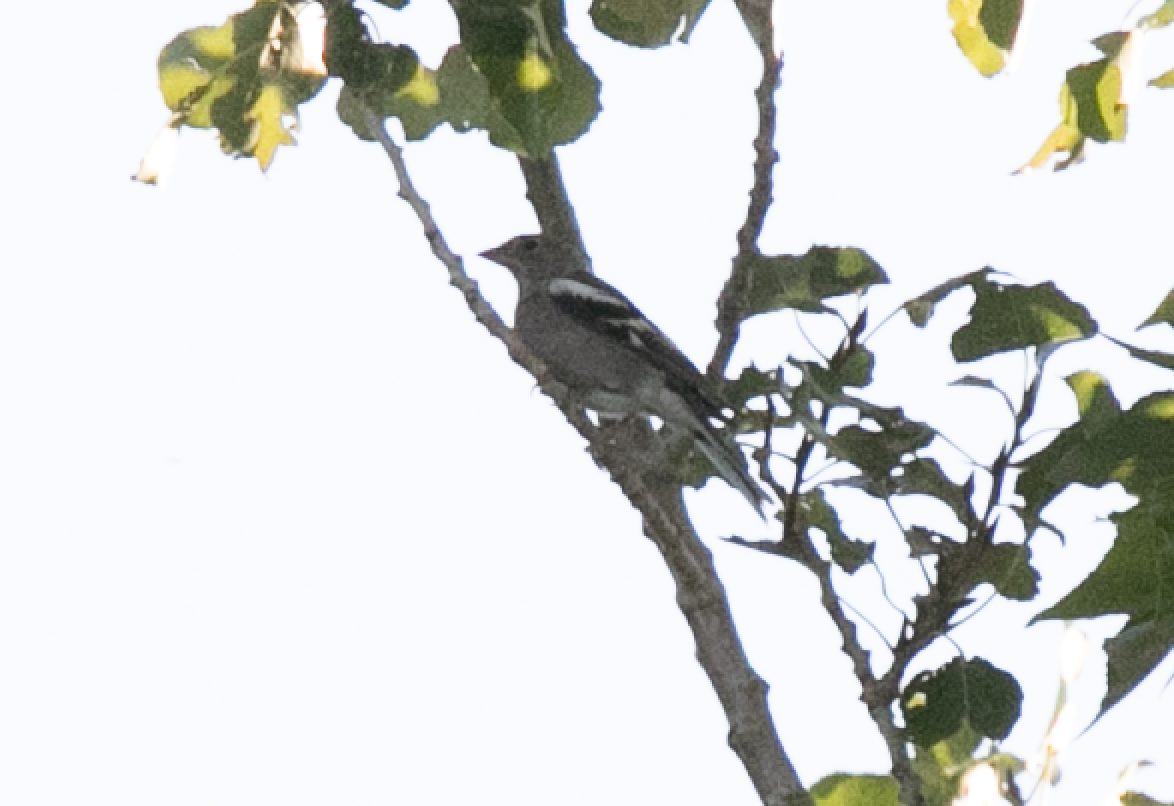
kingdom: Animalia
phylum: Chordata
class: Aves
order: Passeriformes
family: Fringillidae
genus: Fringilla
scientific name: Fringilla coelebs
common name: Common chaffinch
